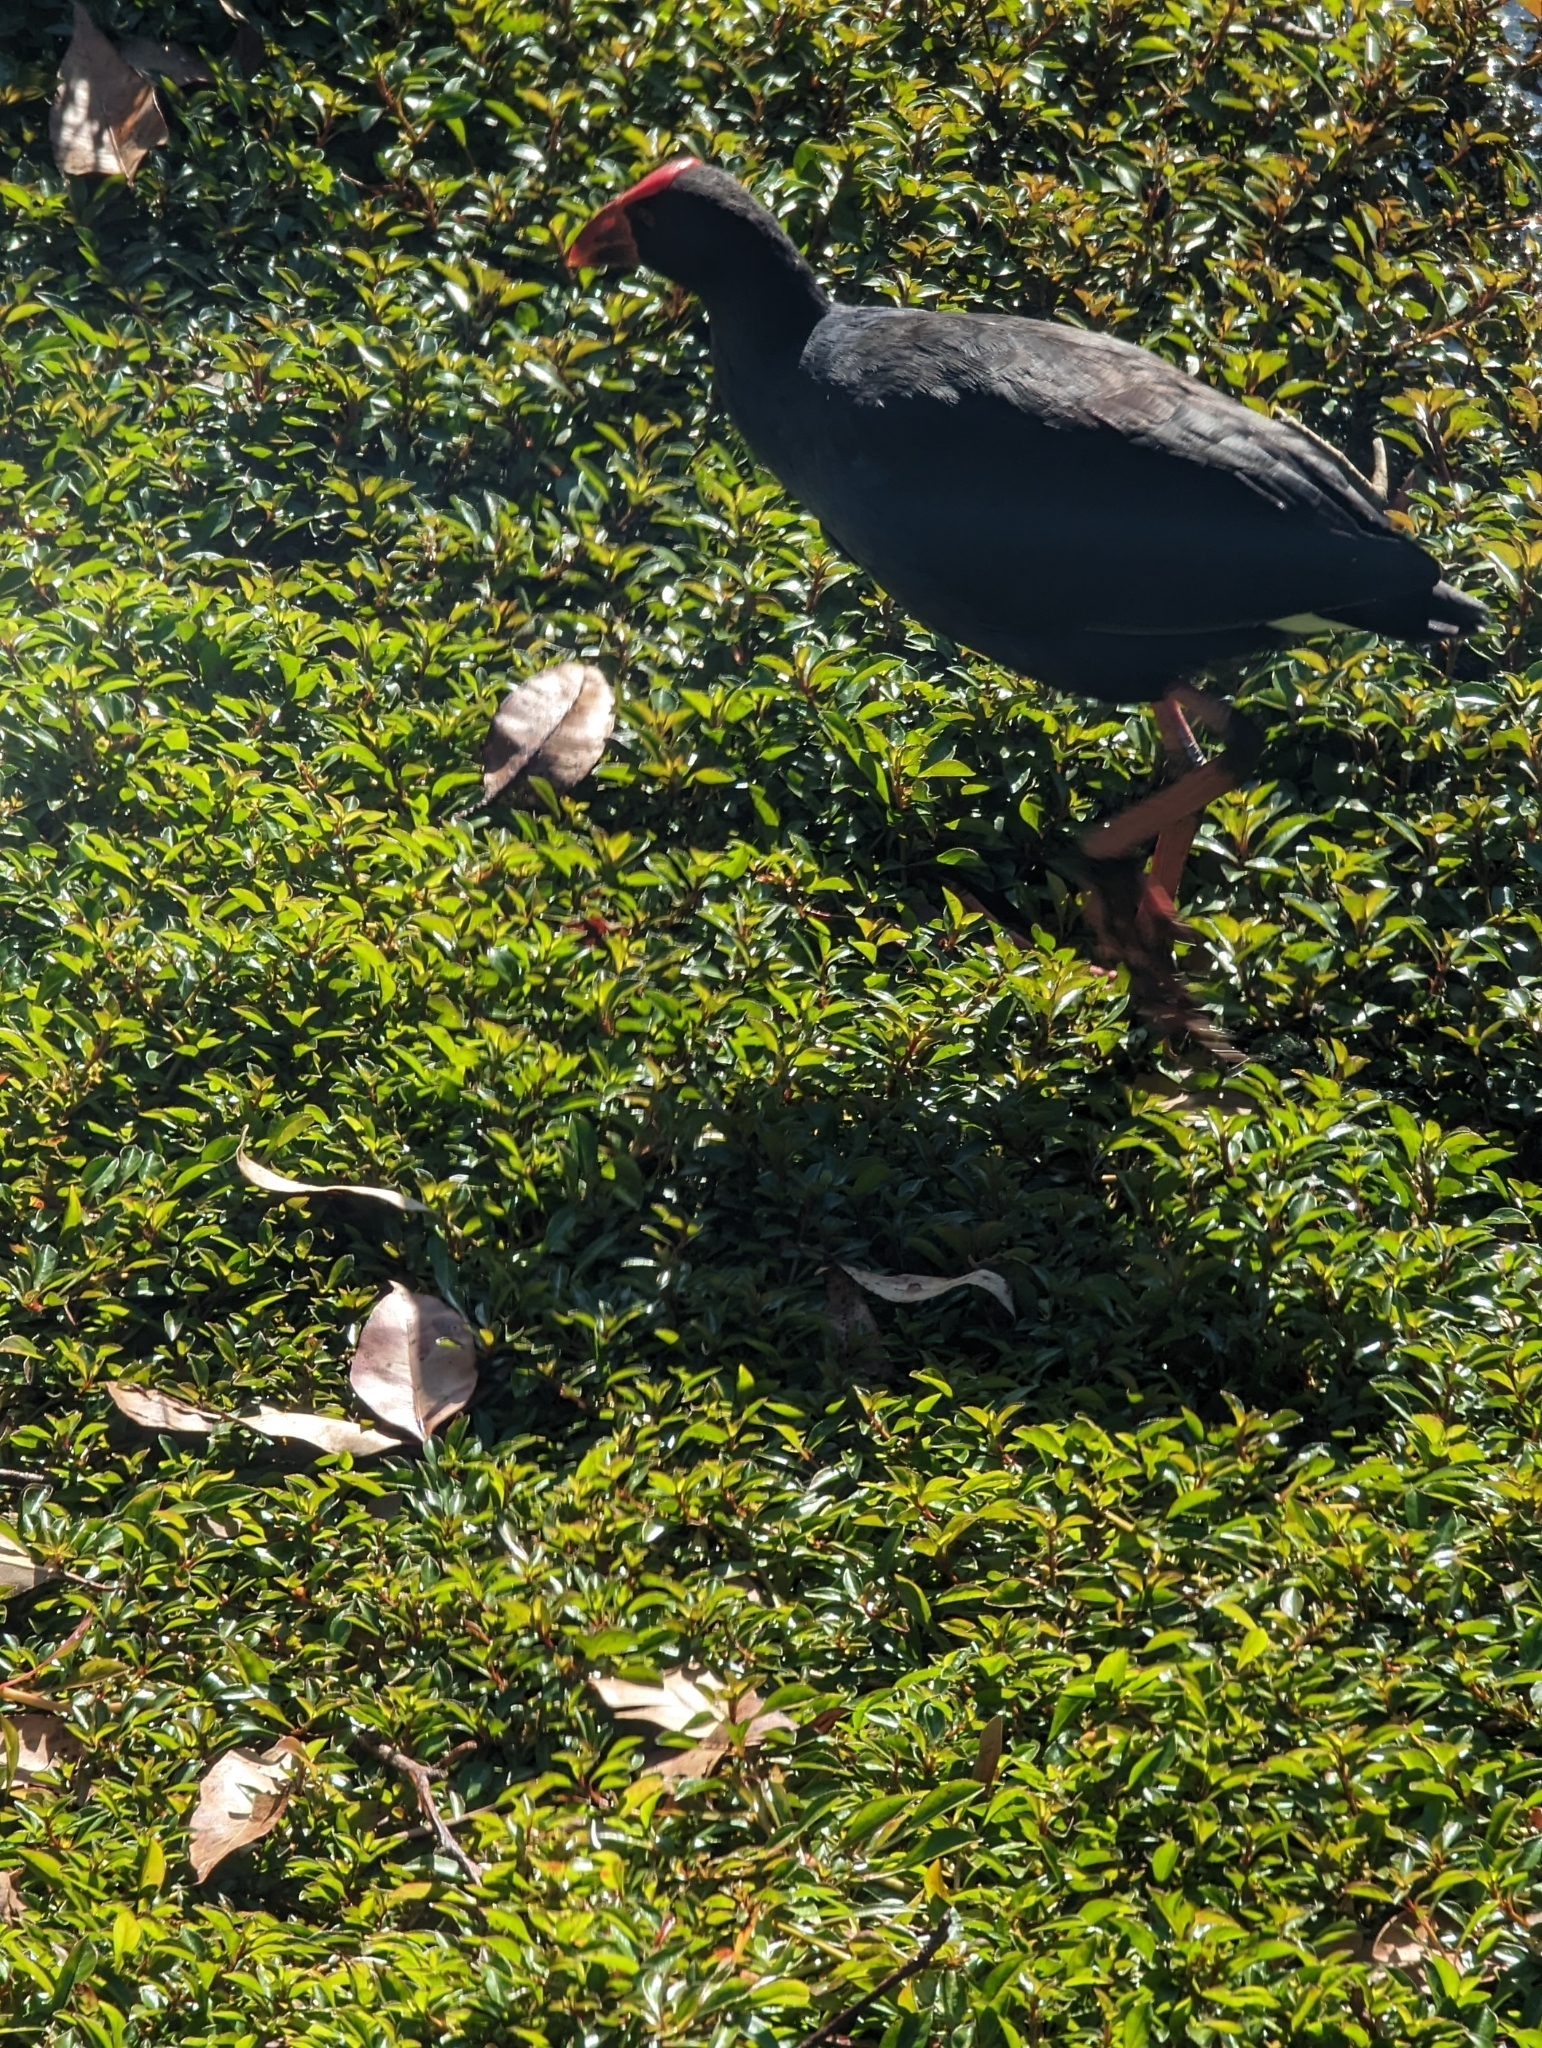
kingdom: Animalia
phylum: Chordata
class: Aves
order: Gruiformes
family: Rallidae
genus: Porphyrio
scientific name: Porphyrio melanotus
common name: Australasian swamphen
